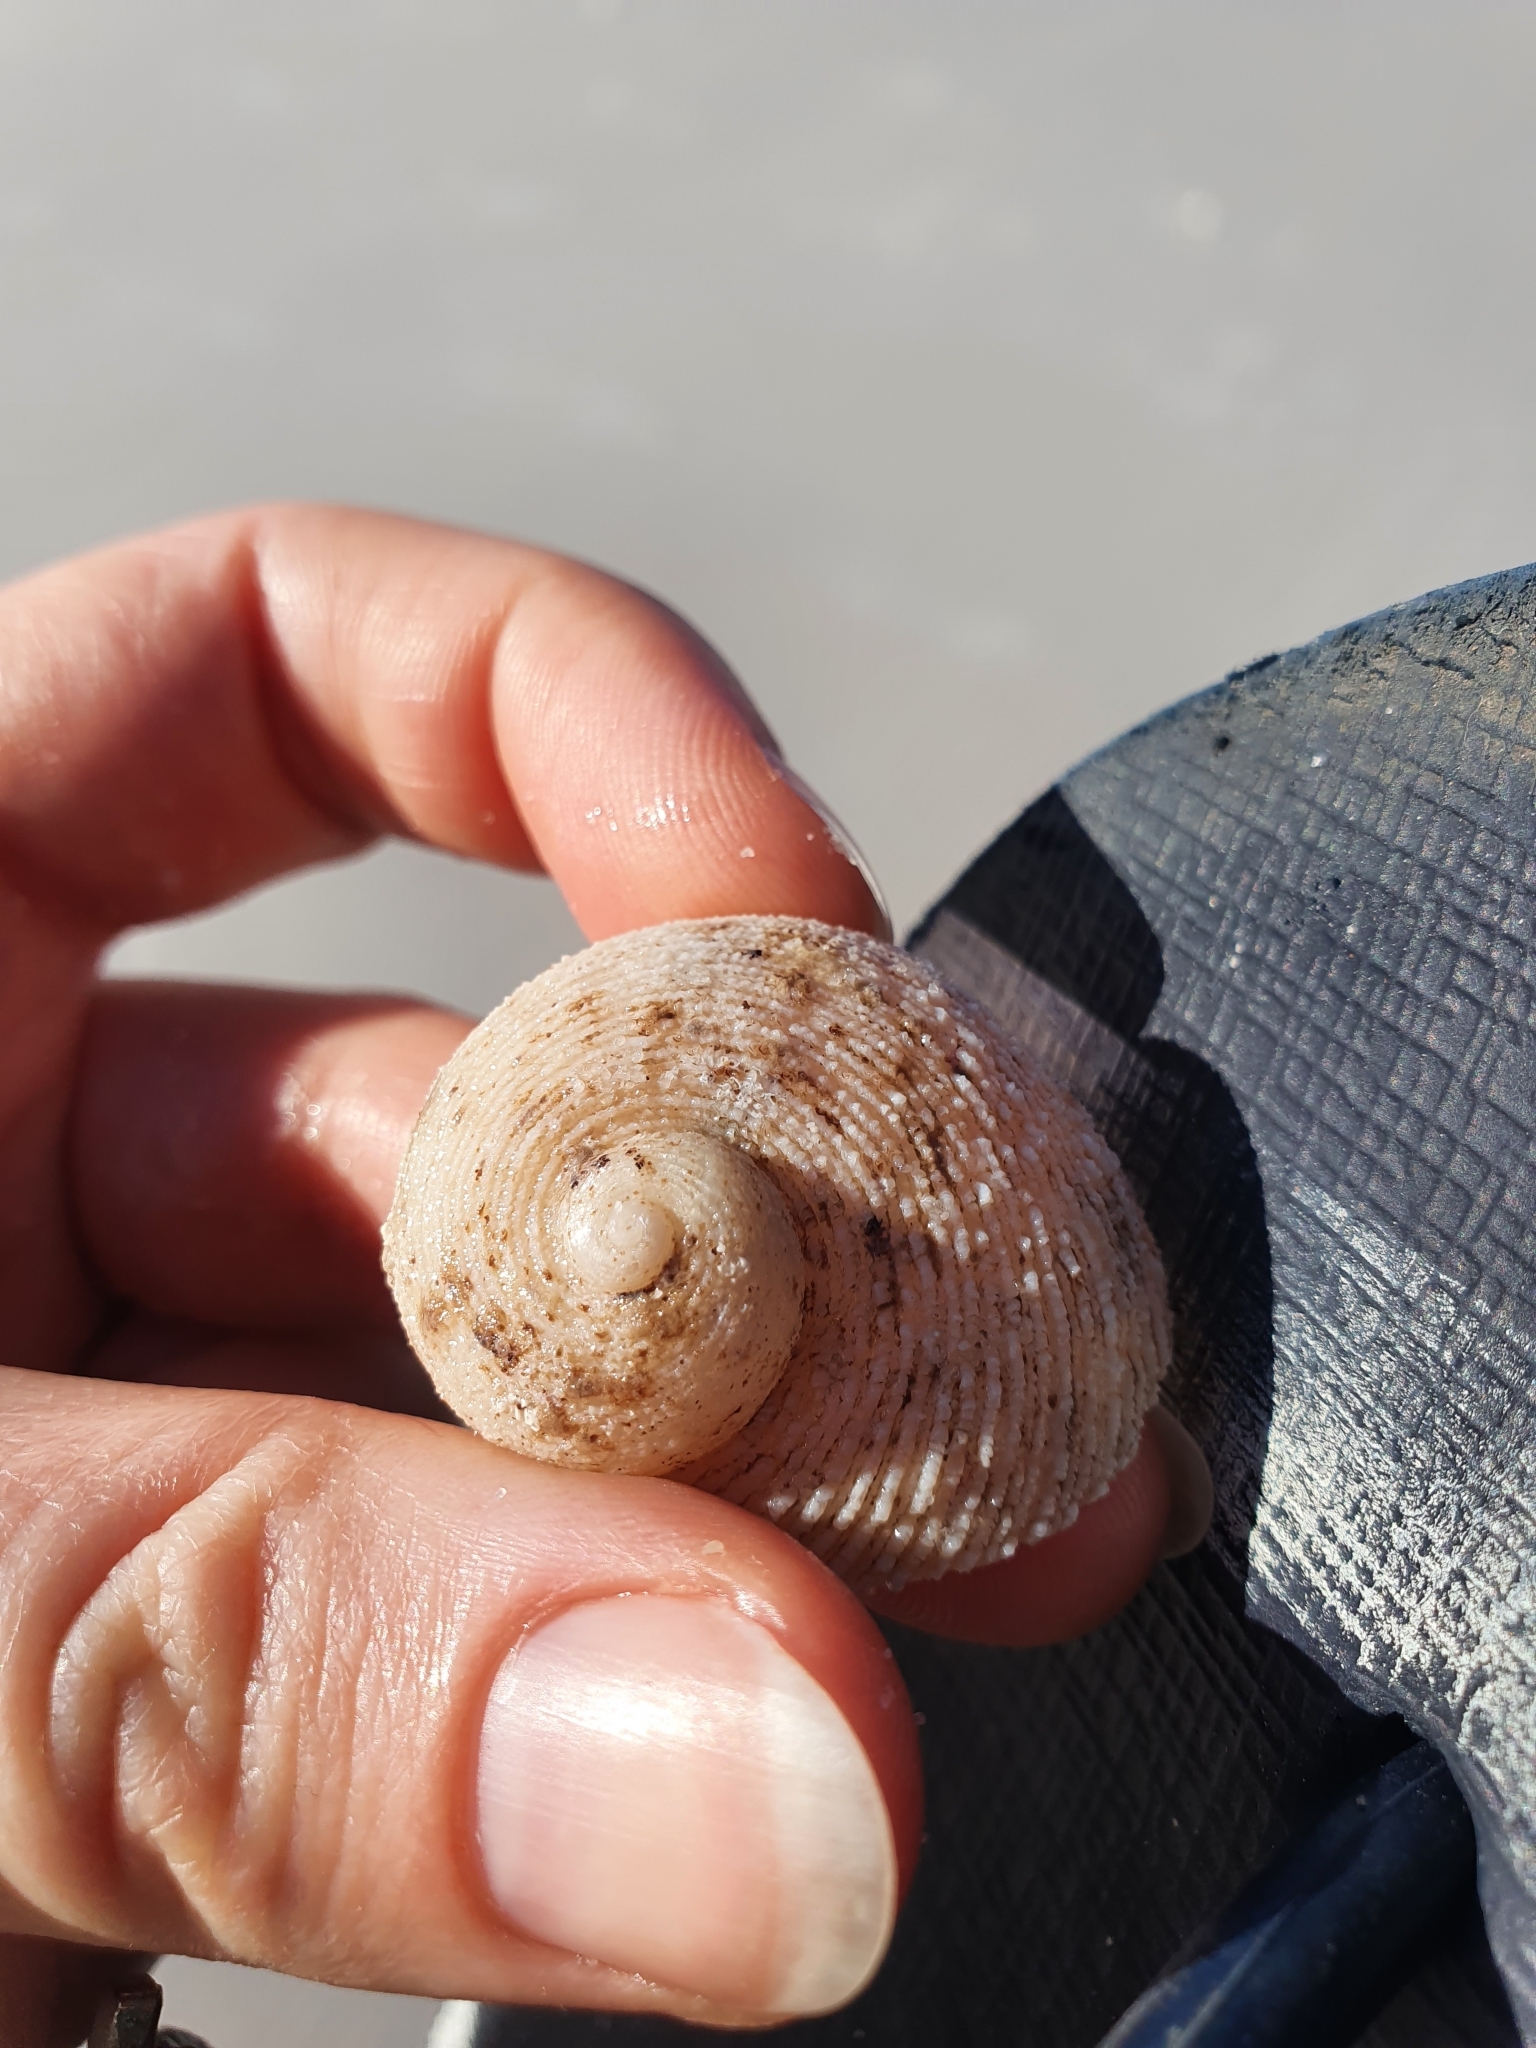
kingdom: Animalia
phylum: Mollusca
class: Gastropoda
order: Seguenziida
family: Chilodontaidae
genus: Granata
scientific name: Granata imbricata
